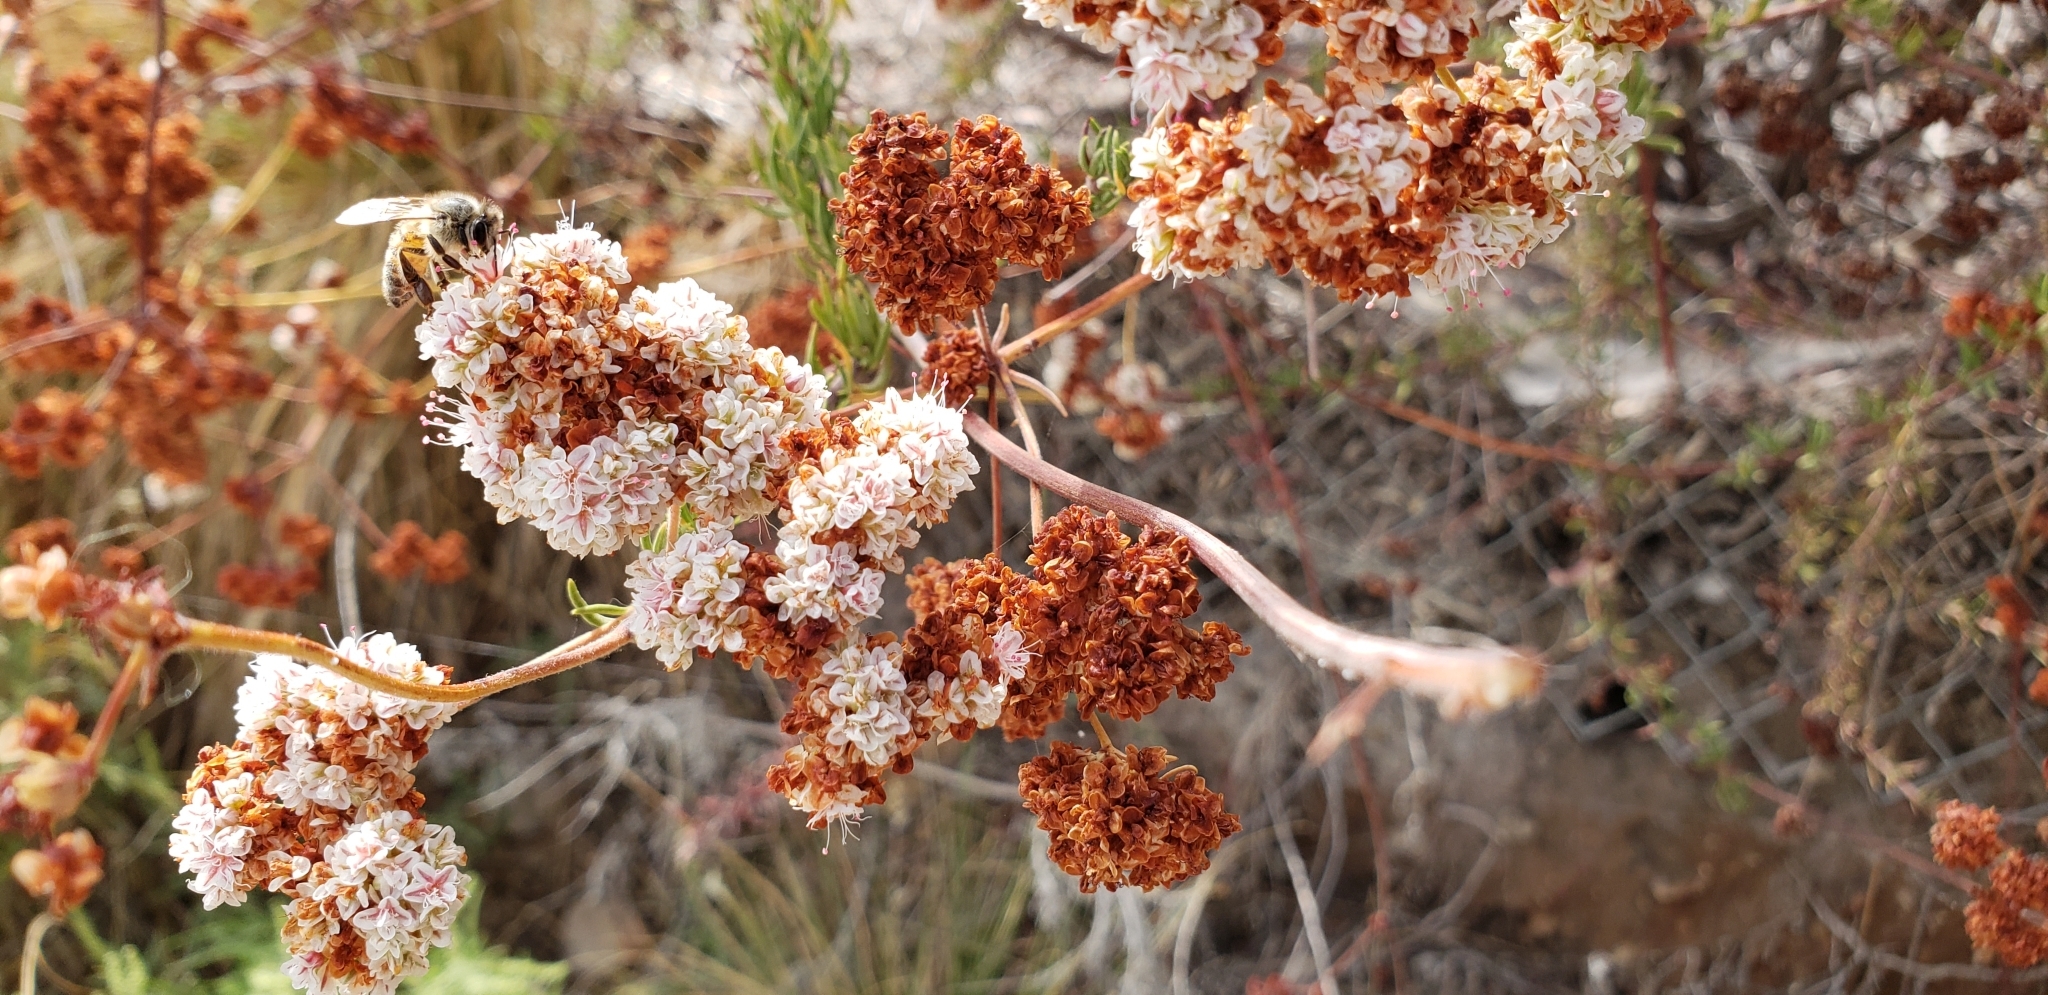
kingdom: Plantae
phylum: Tracheophyta
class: Magnoliopsida
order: Caryophyllales
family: Polygonaceae
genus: Eriogonum
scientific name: Eriogonum fasciculatum
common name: California wild buckwheat
